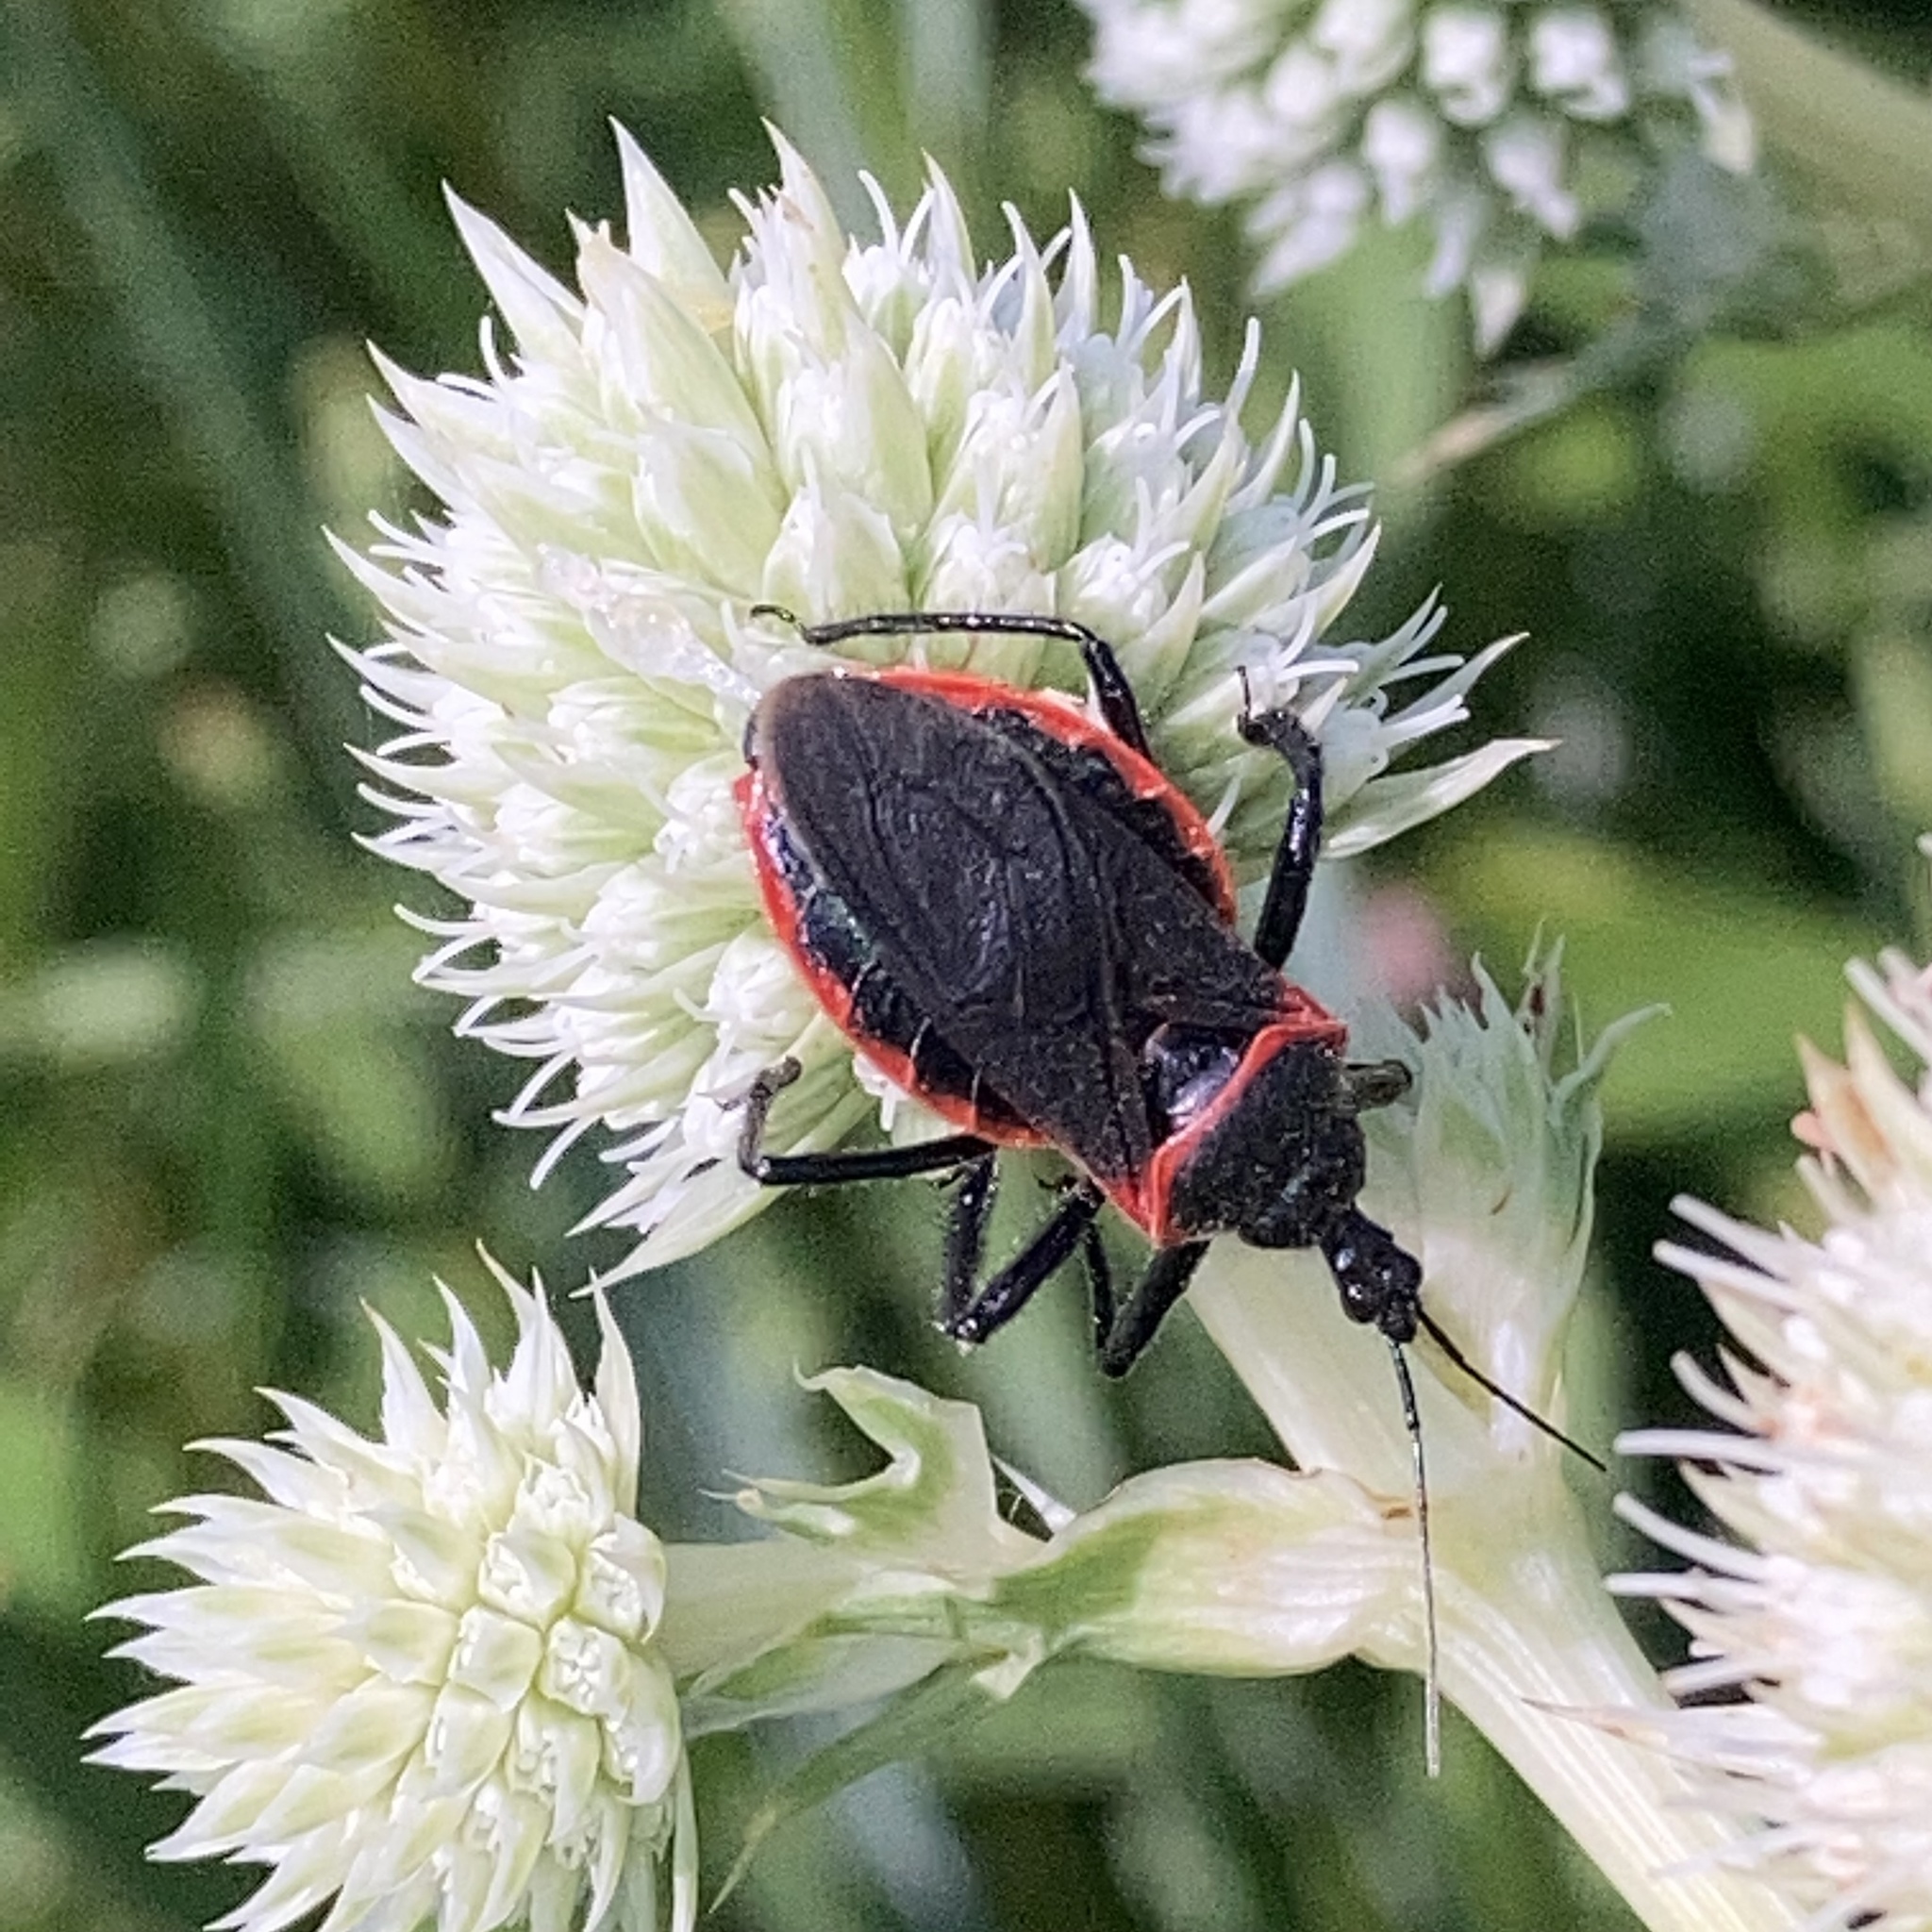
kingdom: Animalia
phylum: Arthropoda
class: Insecta
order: Hemiptera
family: Reduviidae
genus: Apiomerus
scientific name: Apiomerus crassipes
